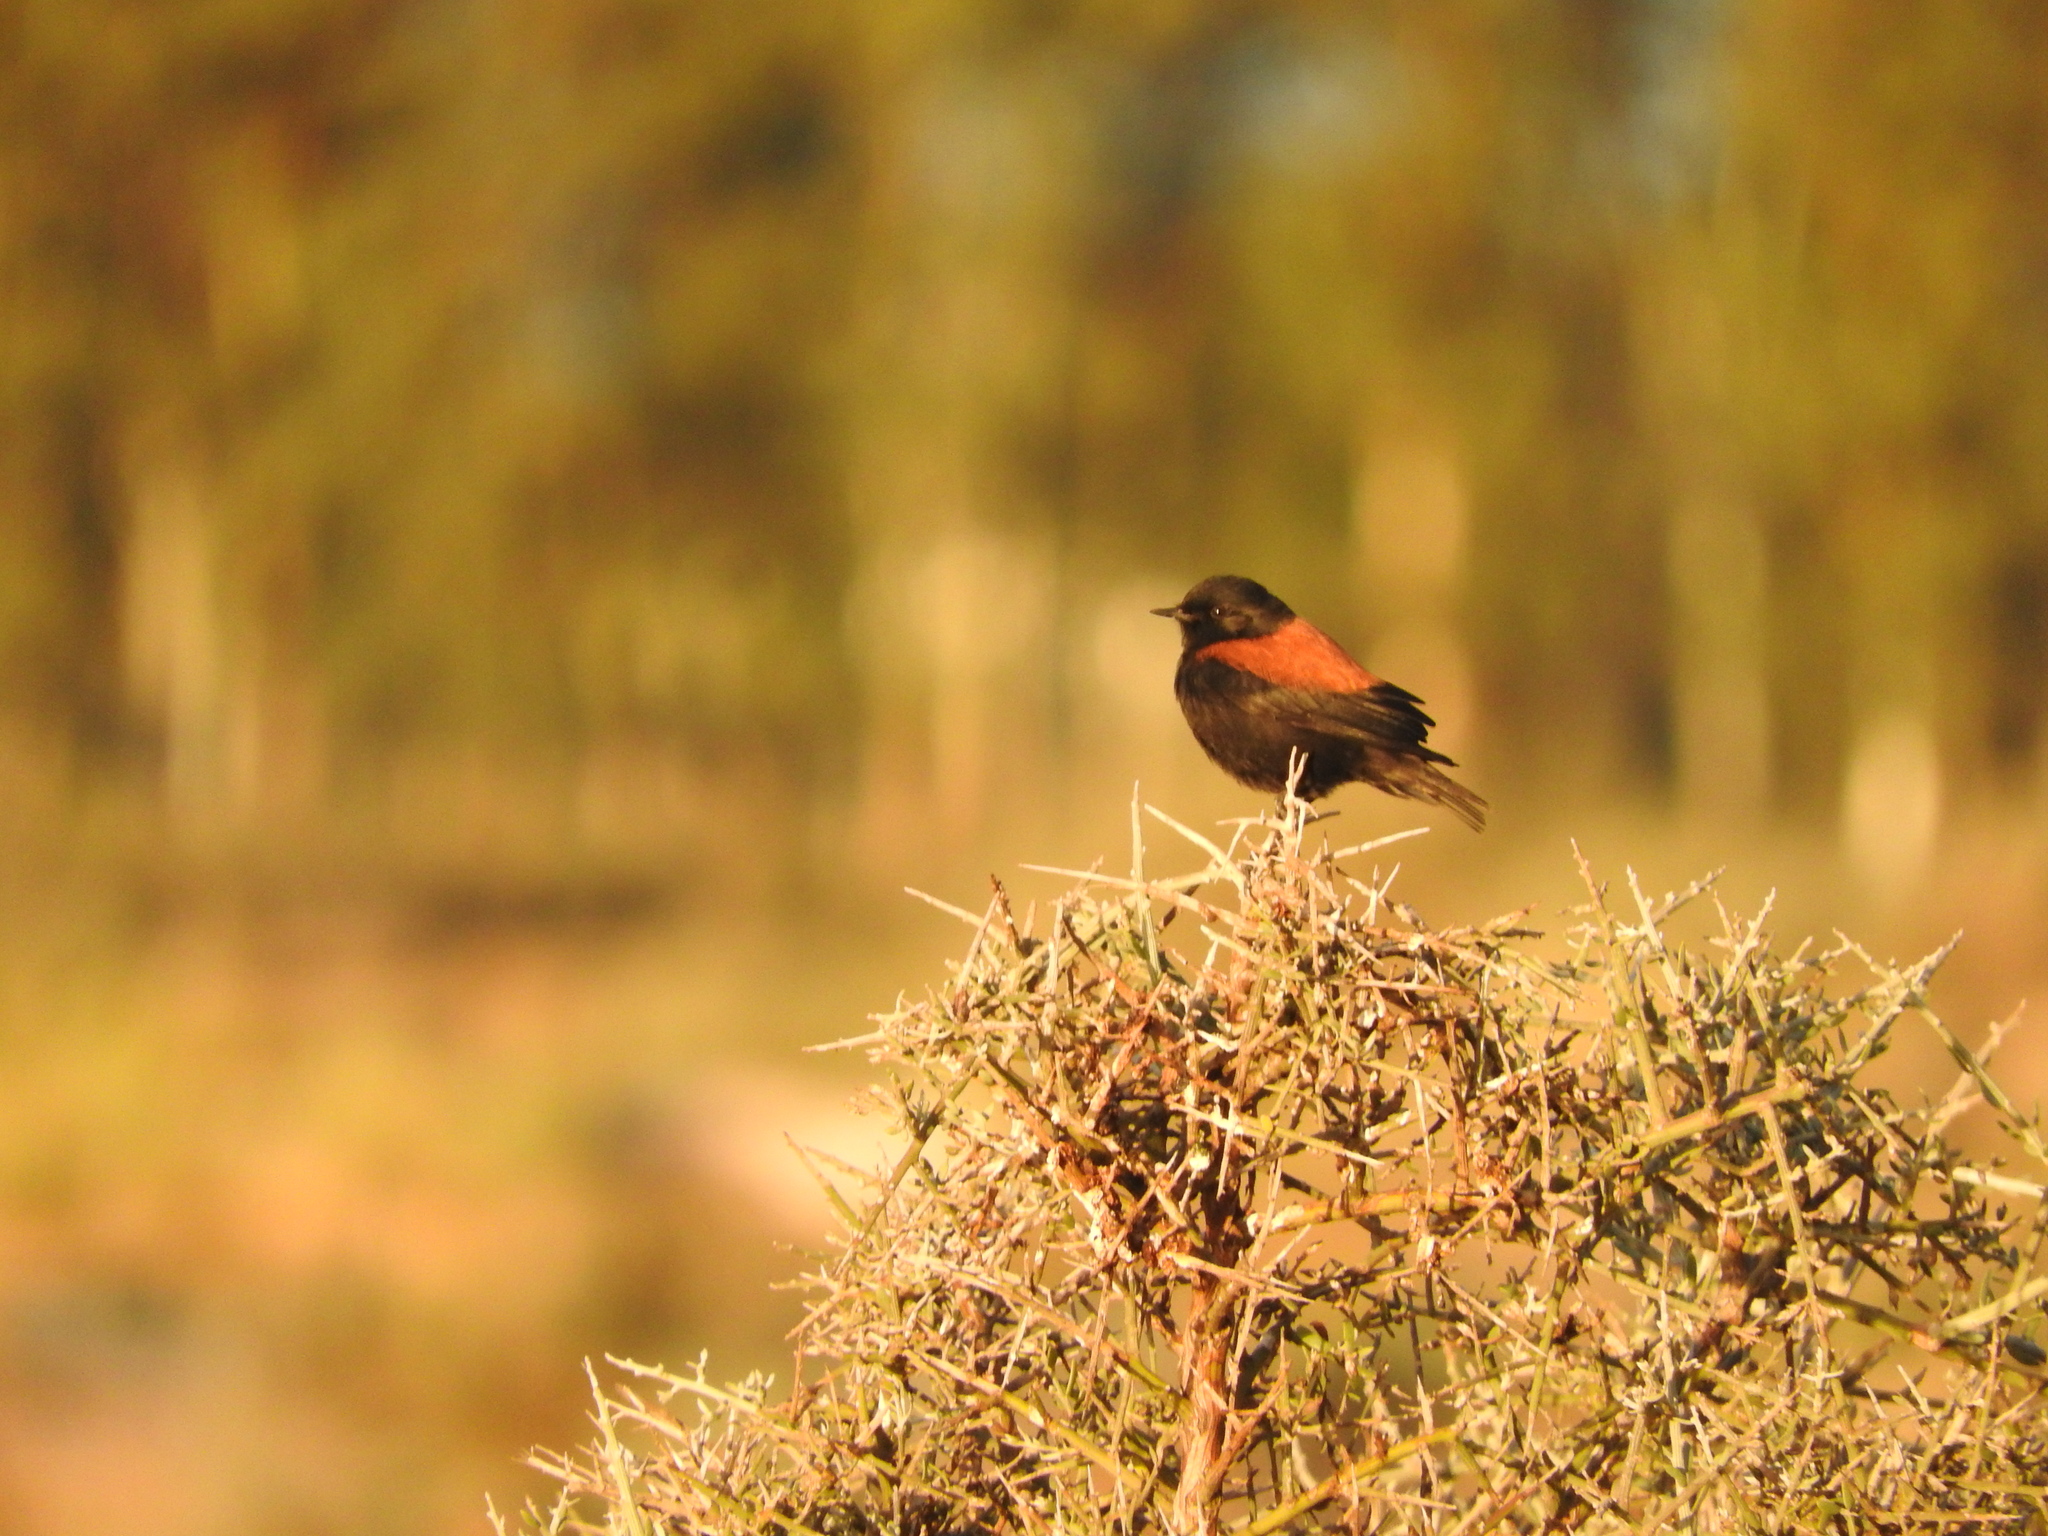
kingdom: Animalia
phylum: Chordata
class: Aves
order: Passeriformes
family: Tyrannidae
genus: Lessonia
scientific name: Lessonia rufa
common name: Austral negrito
